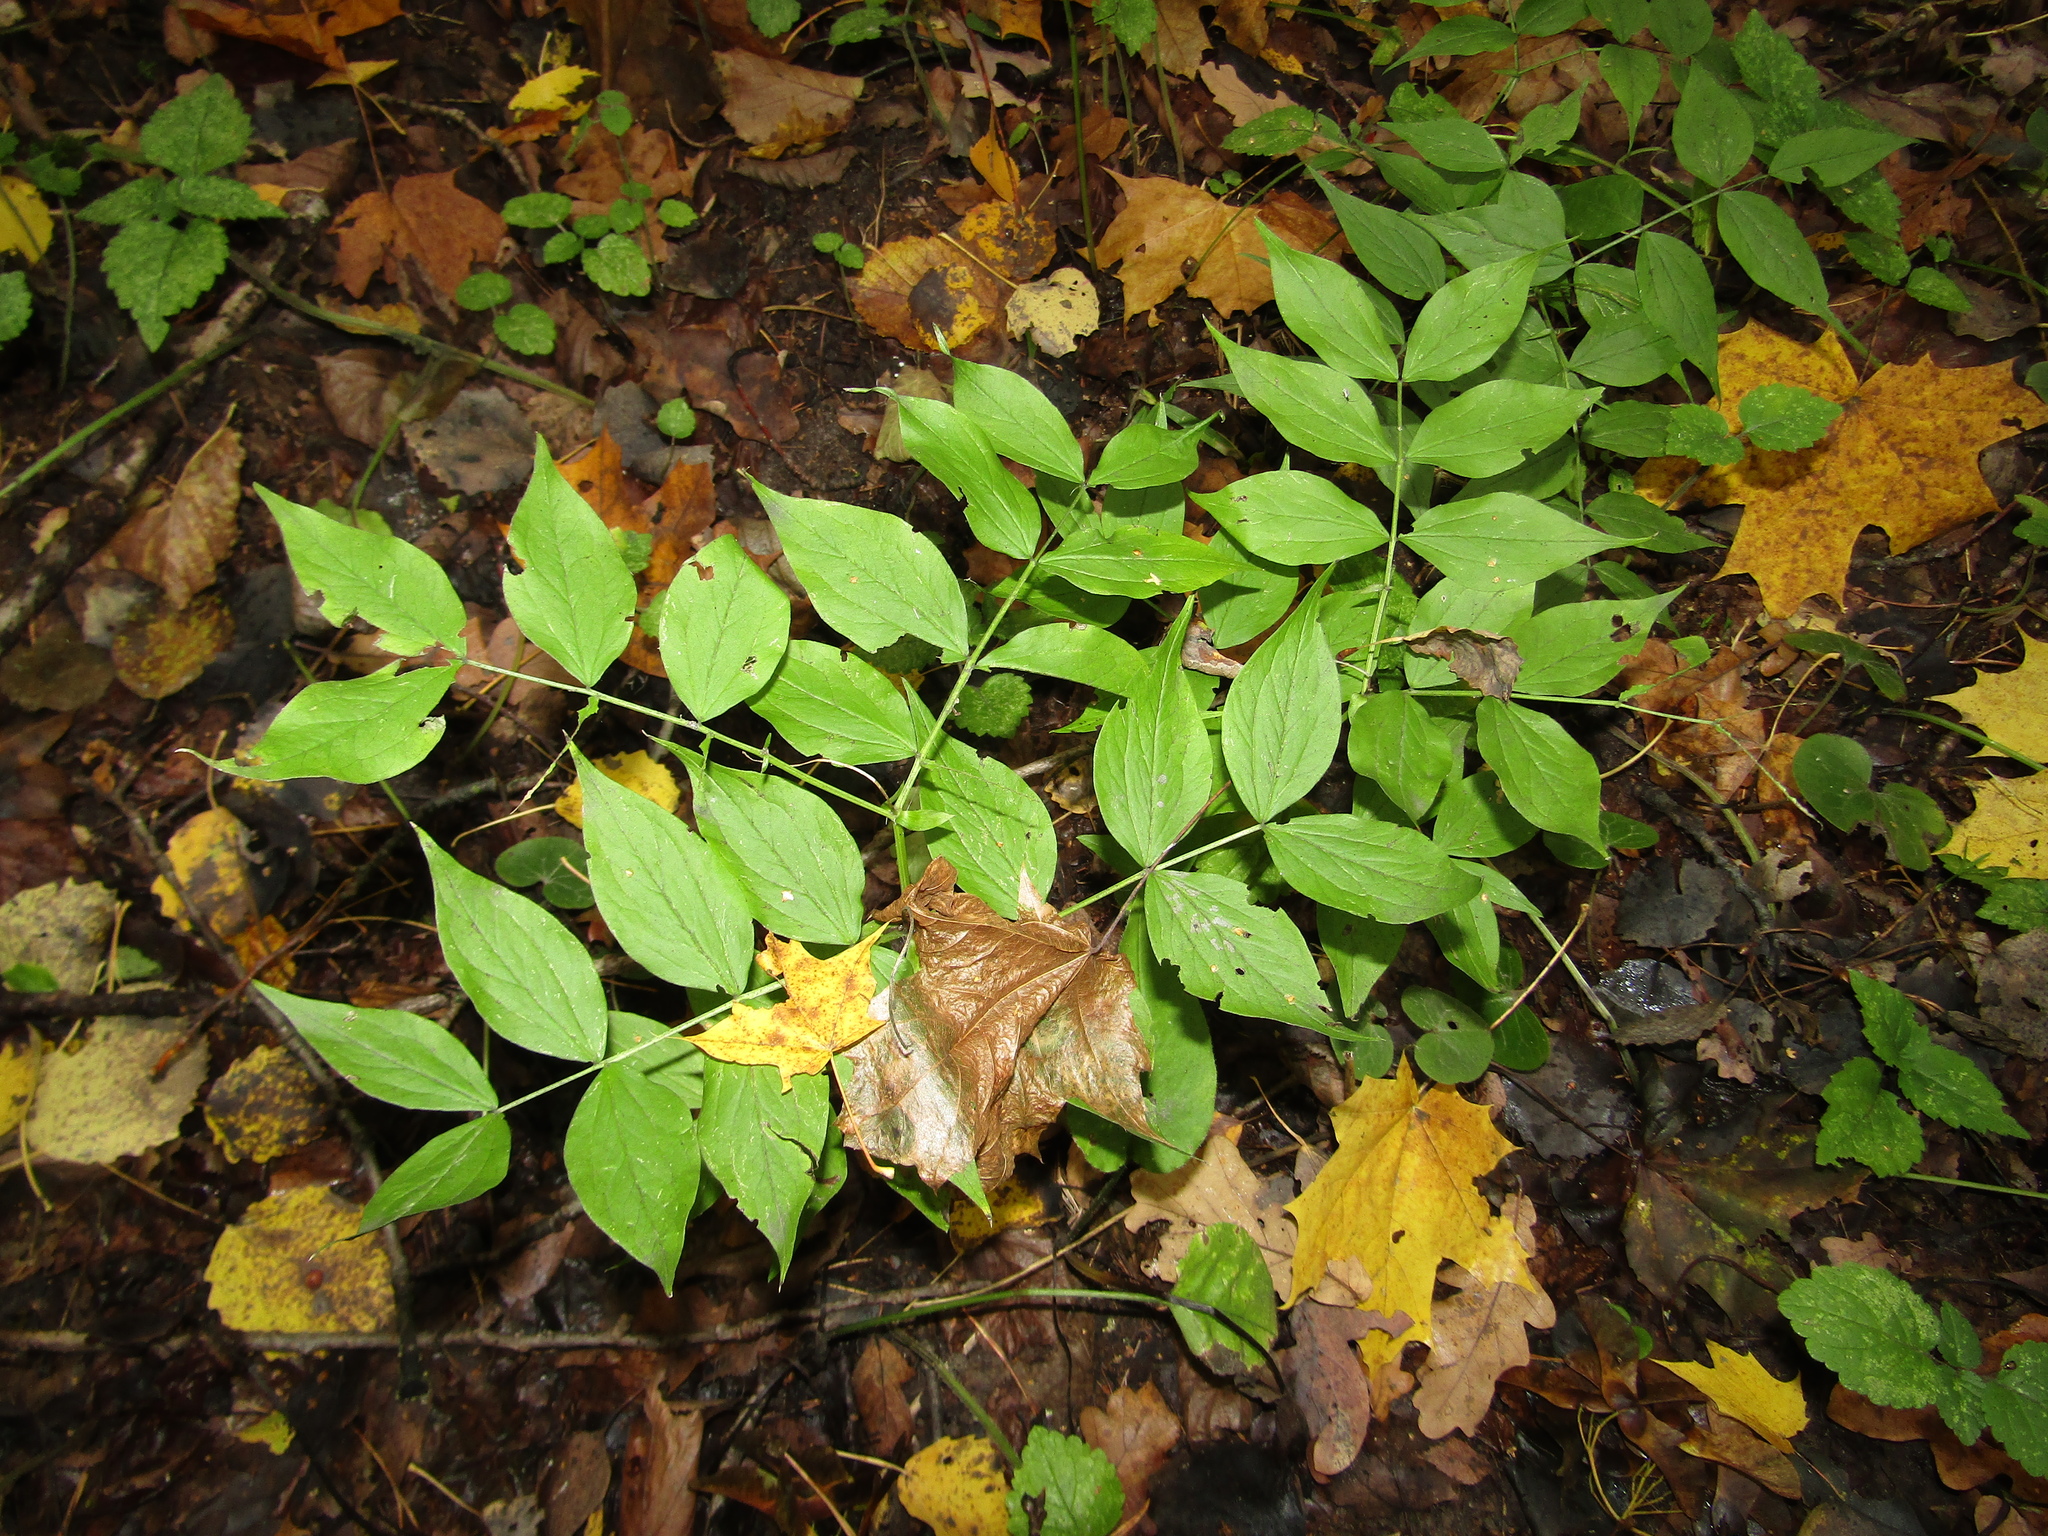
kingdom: Plantae
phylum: Tracheophyta
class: Magnoliopsida
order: Fabales
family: Fabaceae
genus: Lathyrus
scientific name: Lathyrus vernus
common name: Spring pea
